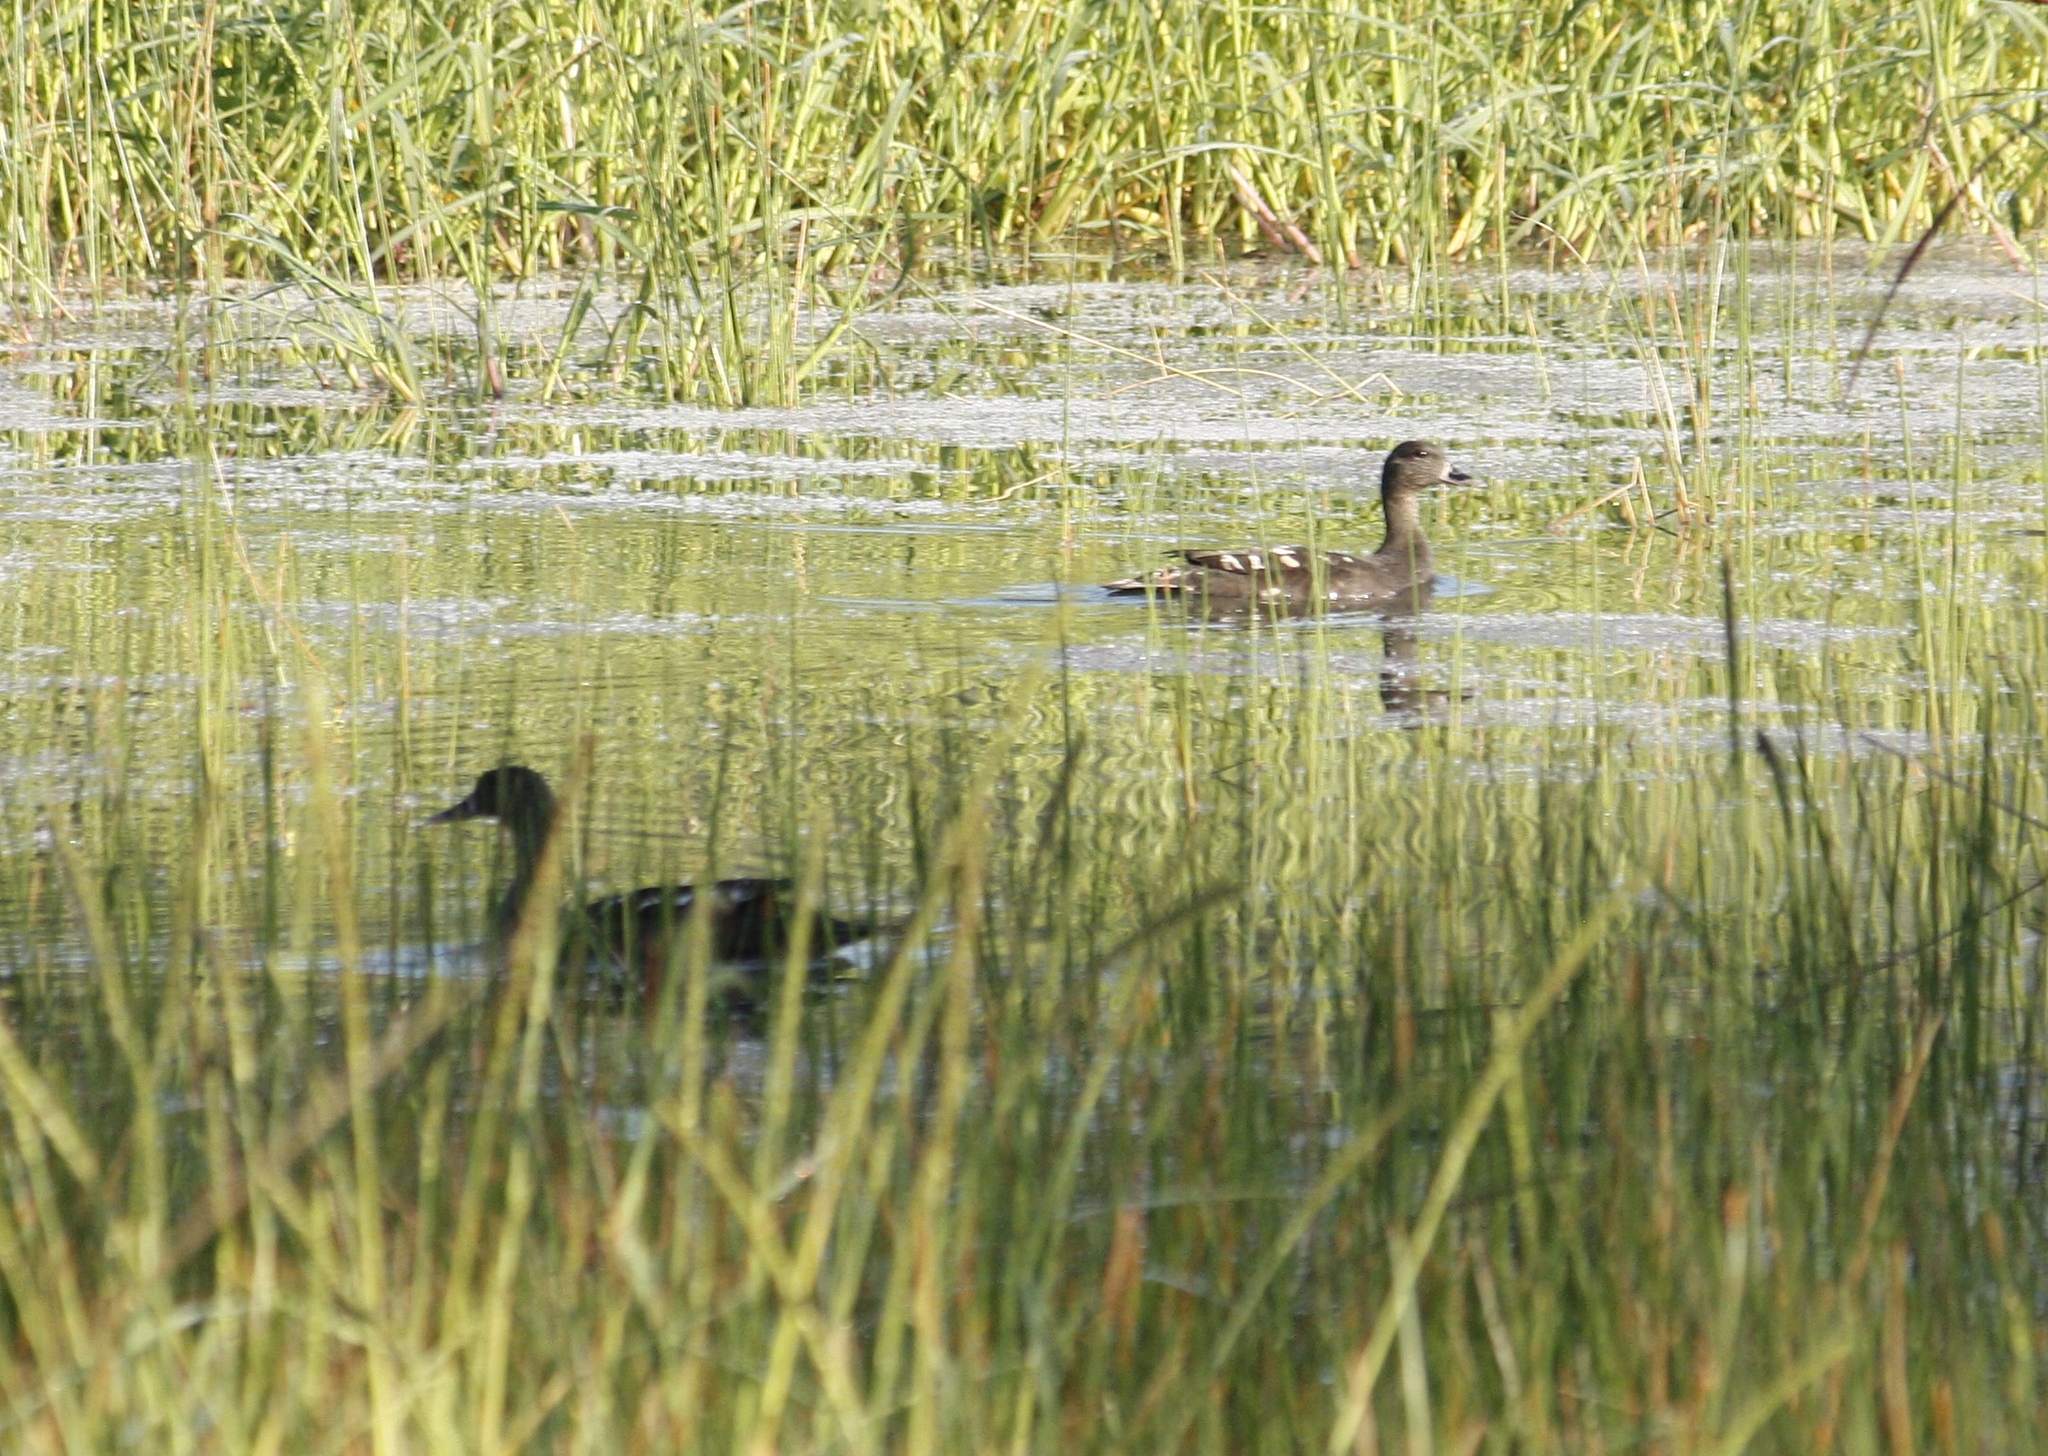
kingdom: Animalia
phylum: Chordata
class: Aves
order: Anseriformes
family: Anatidae
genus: Anas
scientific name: Anas sparsa
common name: African black duck
